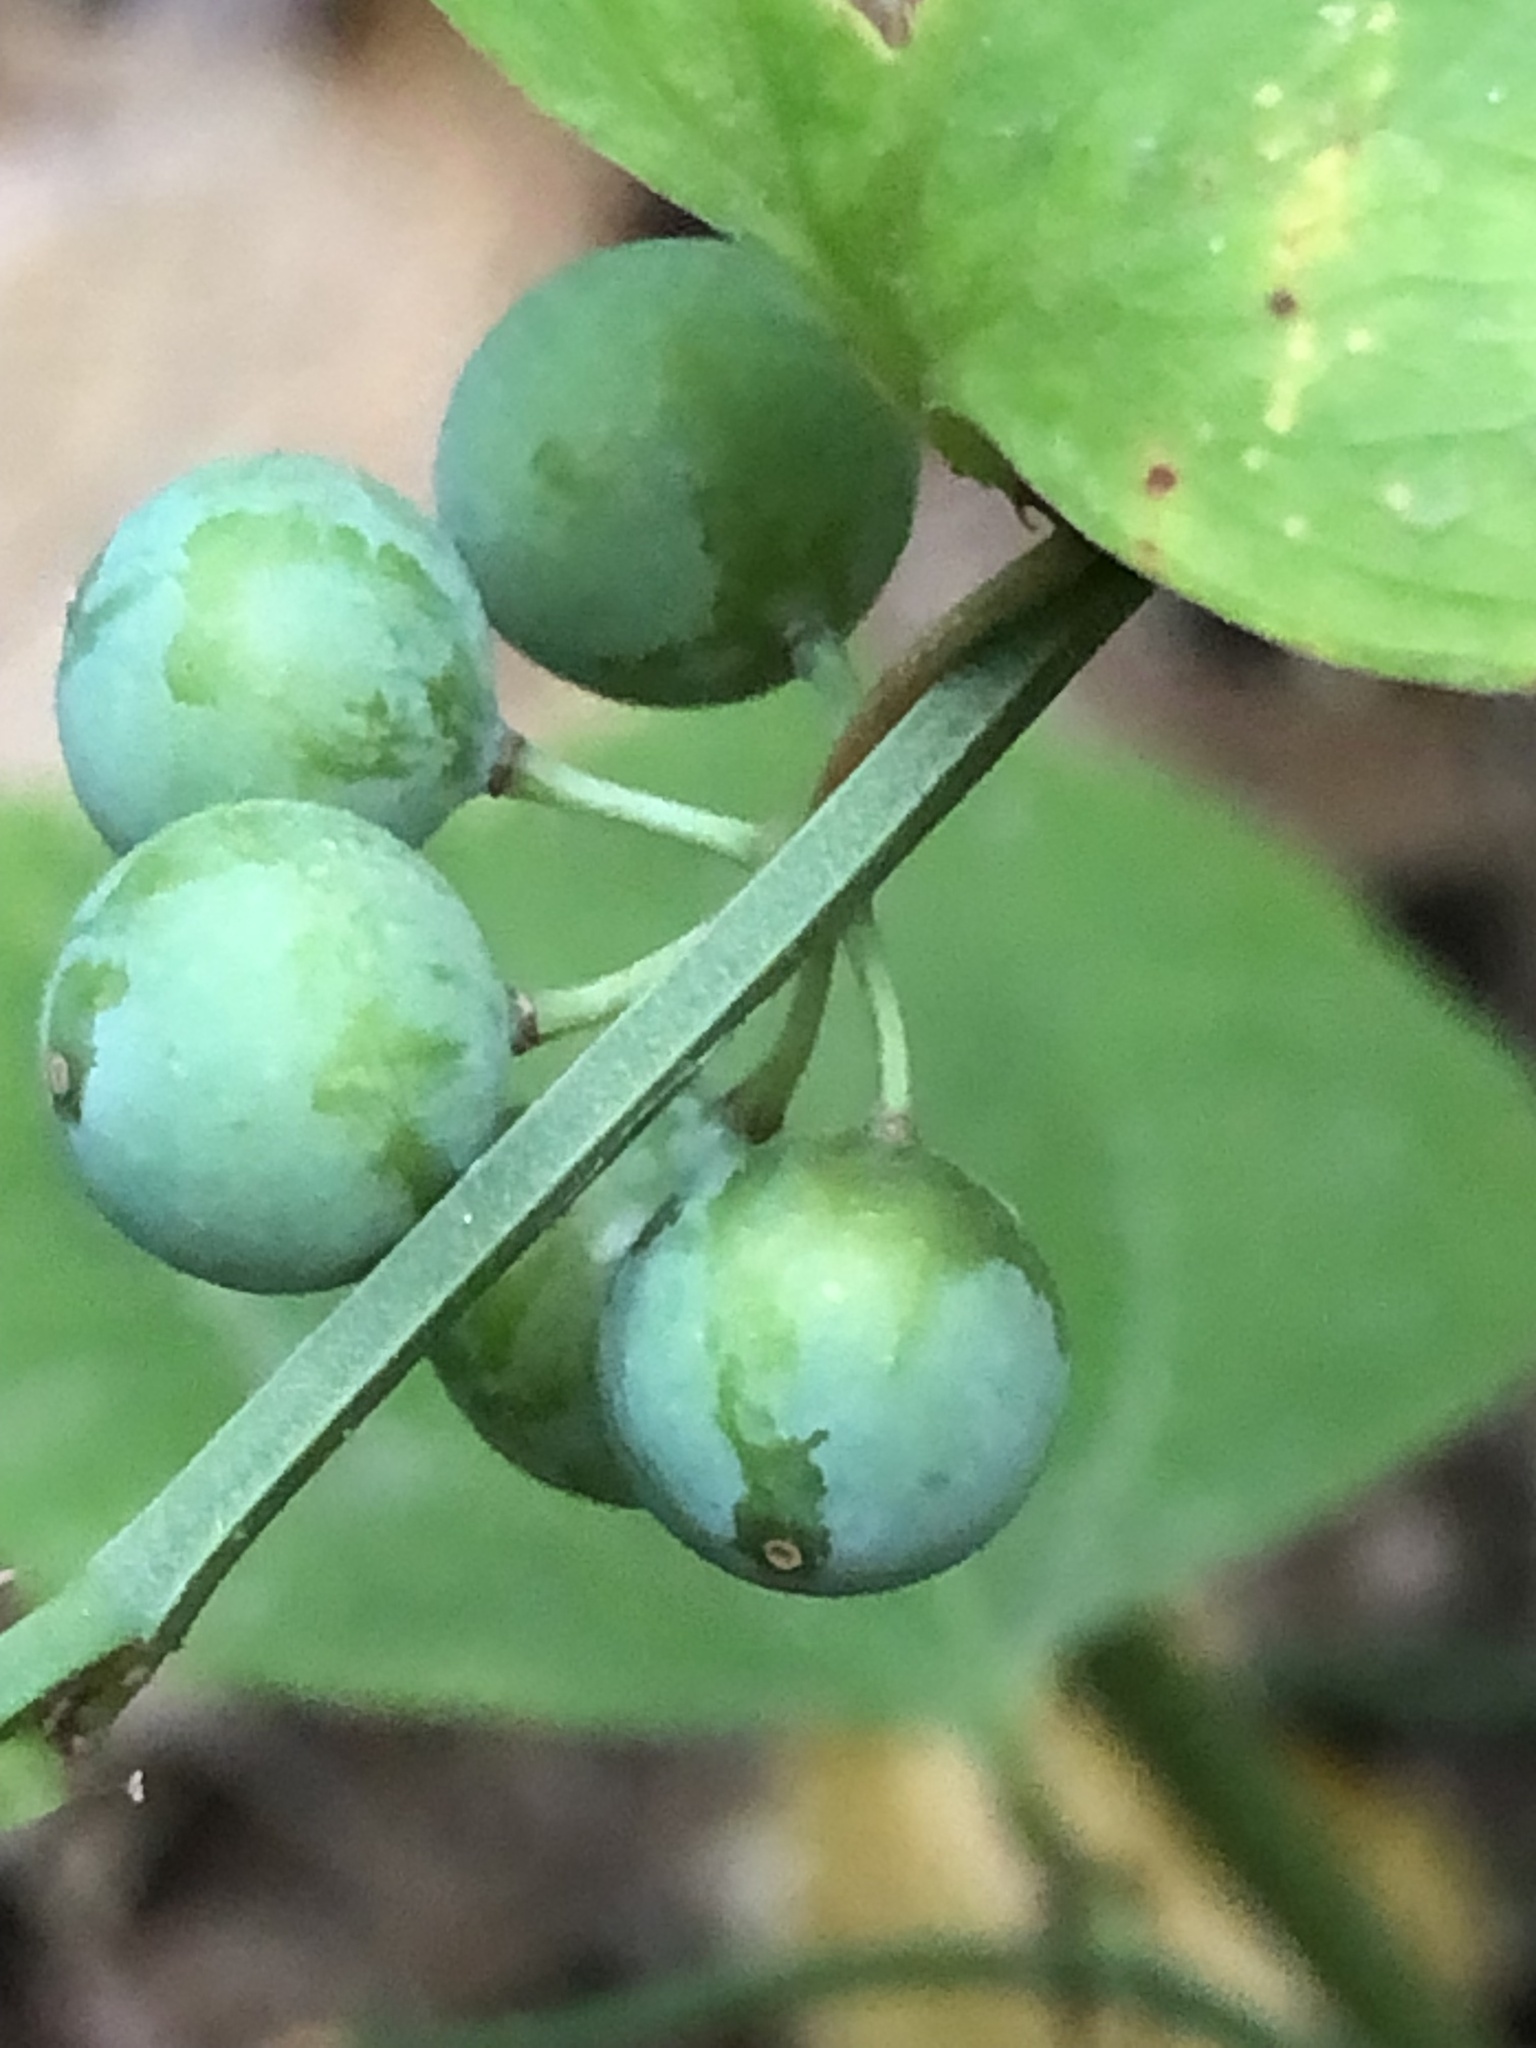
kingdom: Plantae
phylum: Tracheophyta
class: Liliopsida
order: Liliales
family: Smilacaceae
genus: Smilax
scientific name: Smilax rotundifolia
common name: Bullbriar
